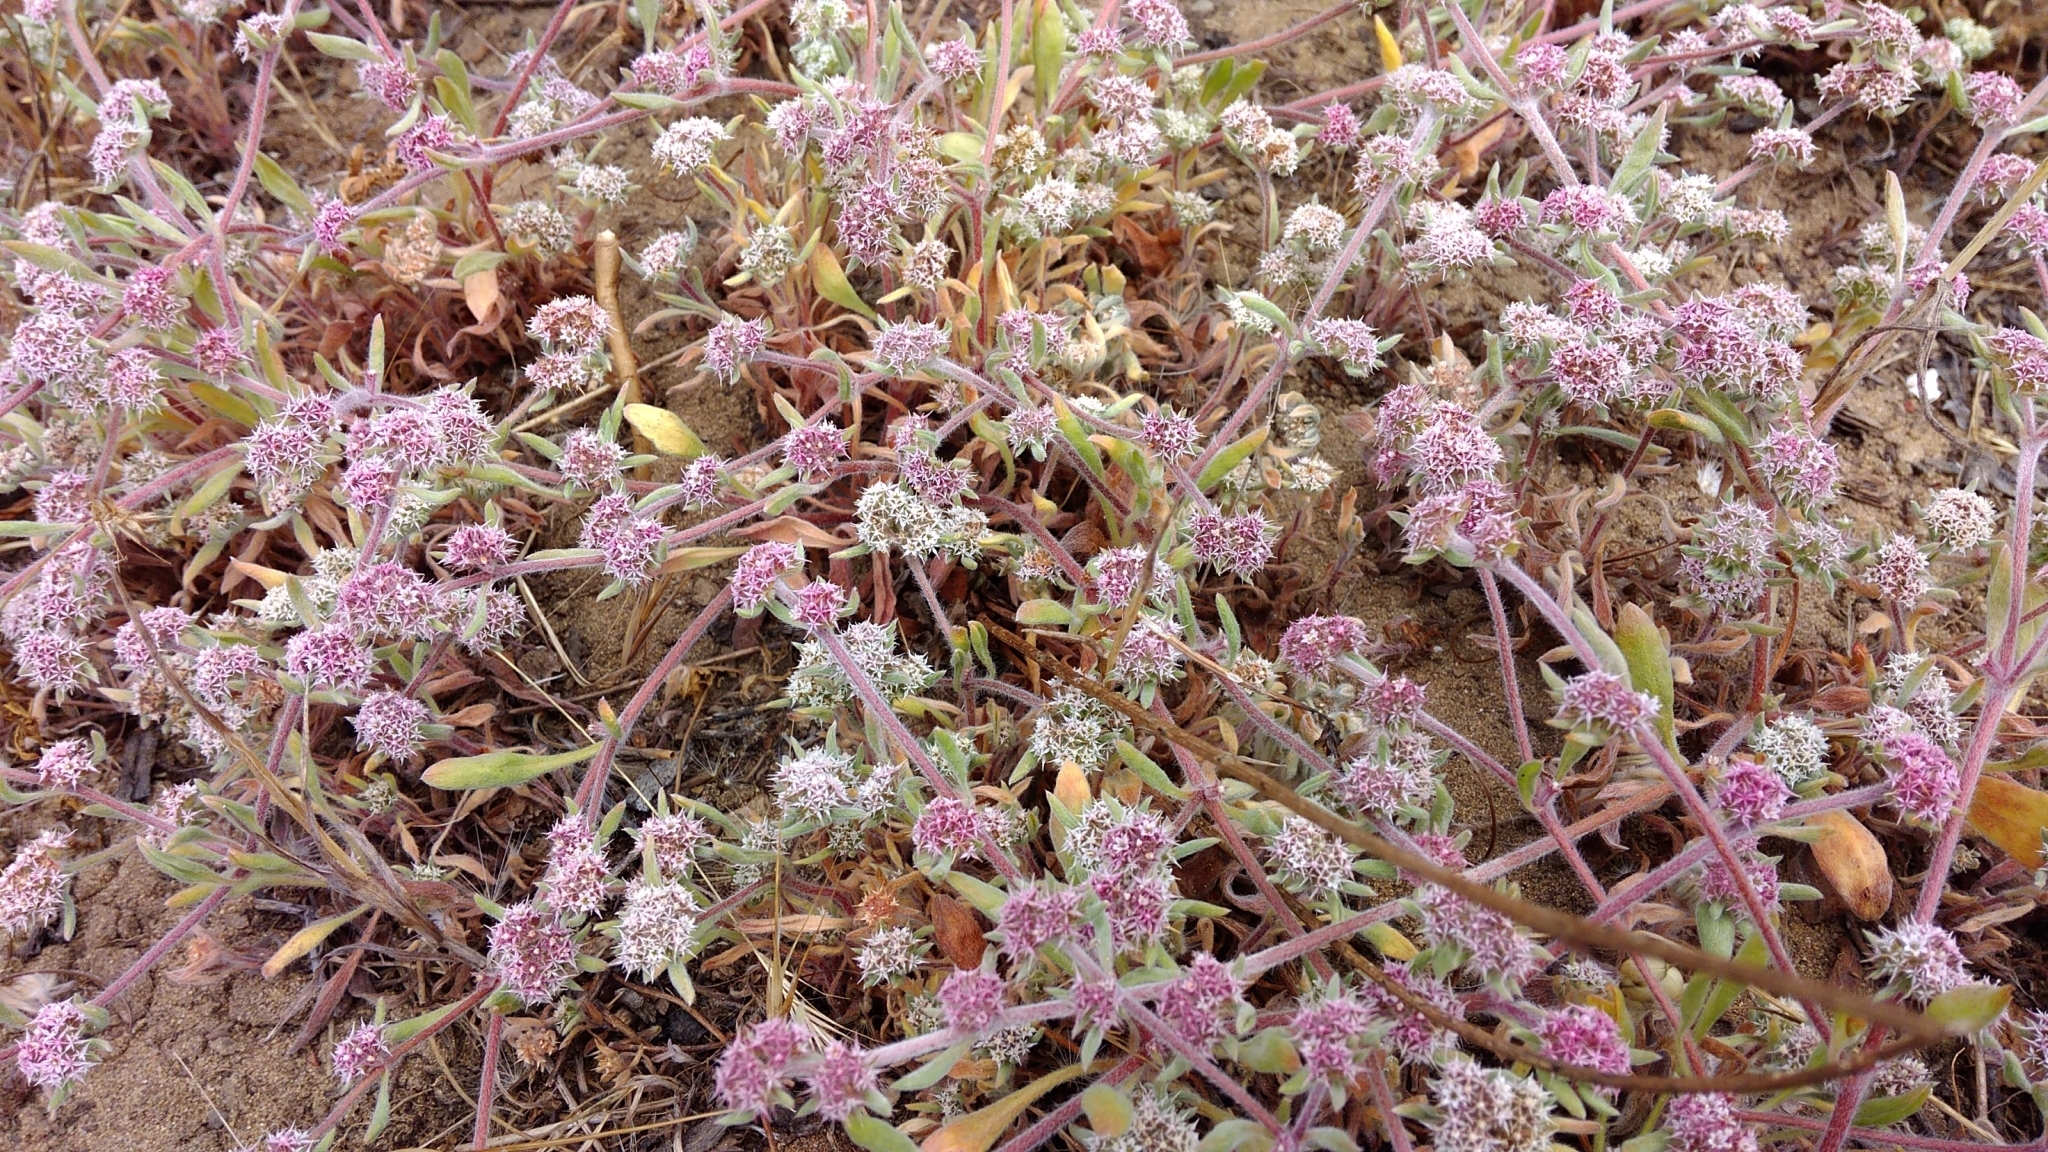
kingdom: Plantae
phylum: Tracheophyta
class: Magnoliopsida
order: Caryophyllales
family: Polygonaceae
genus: Chorizanthe
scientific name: Chorizanthe cuspidata
